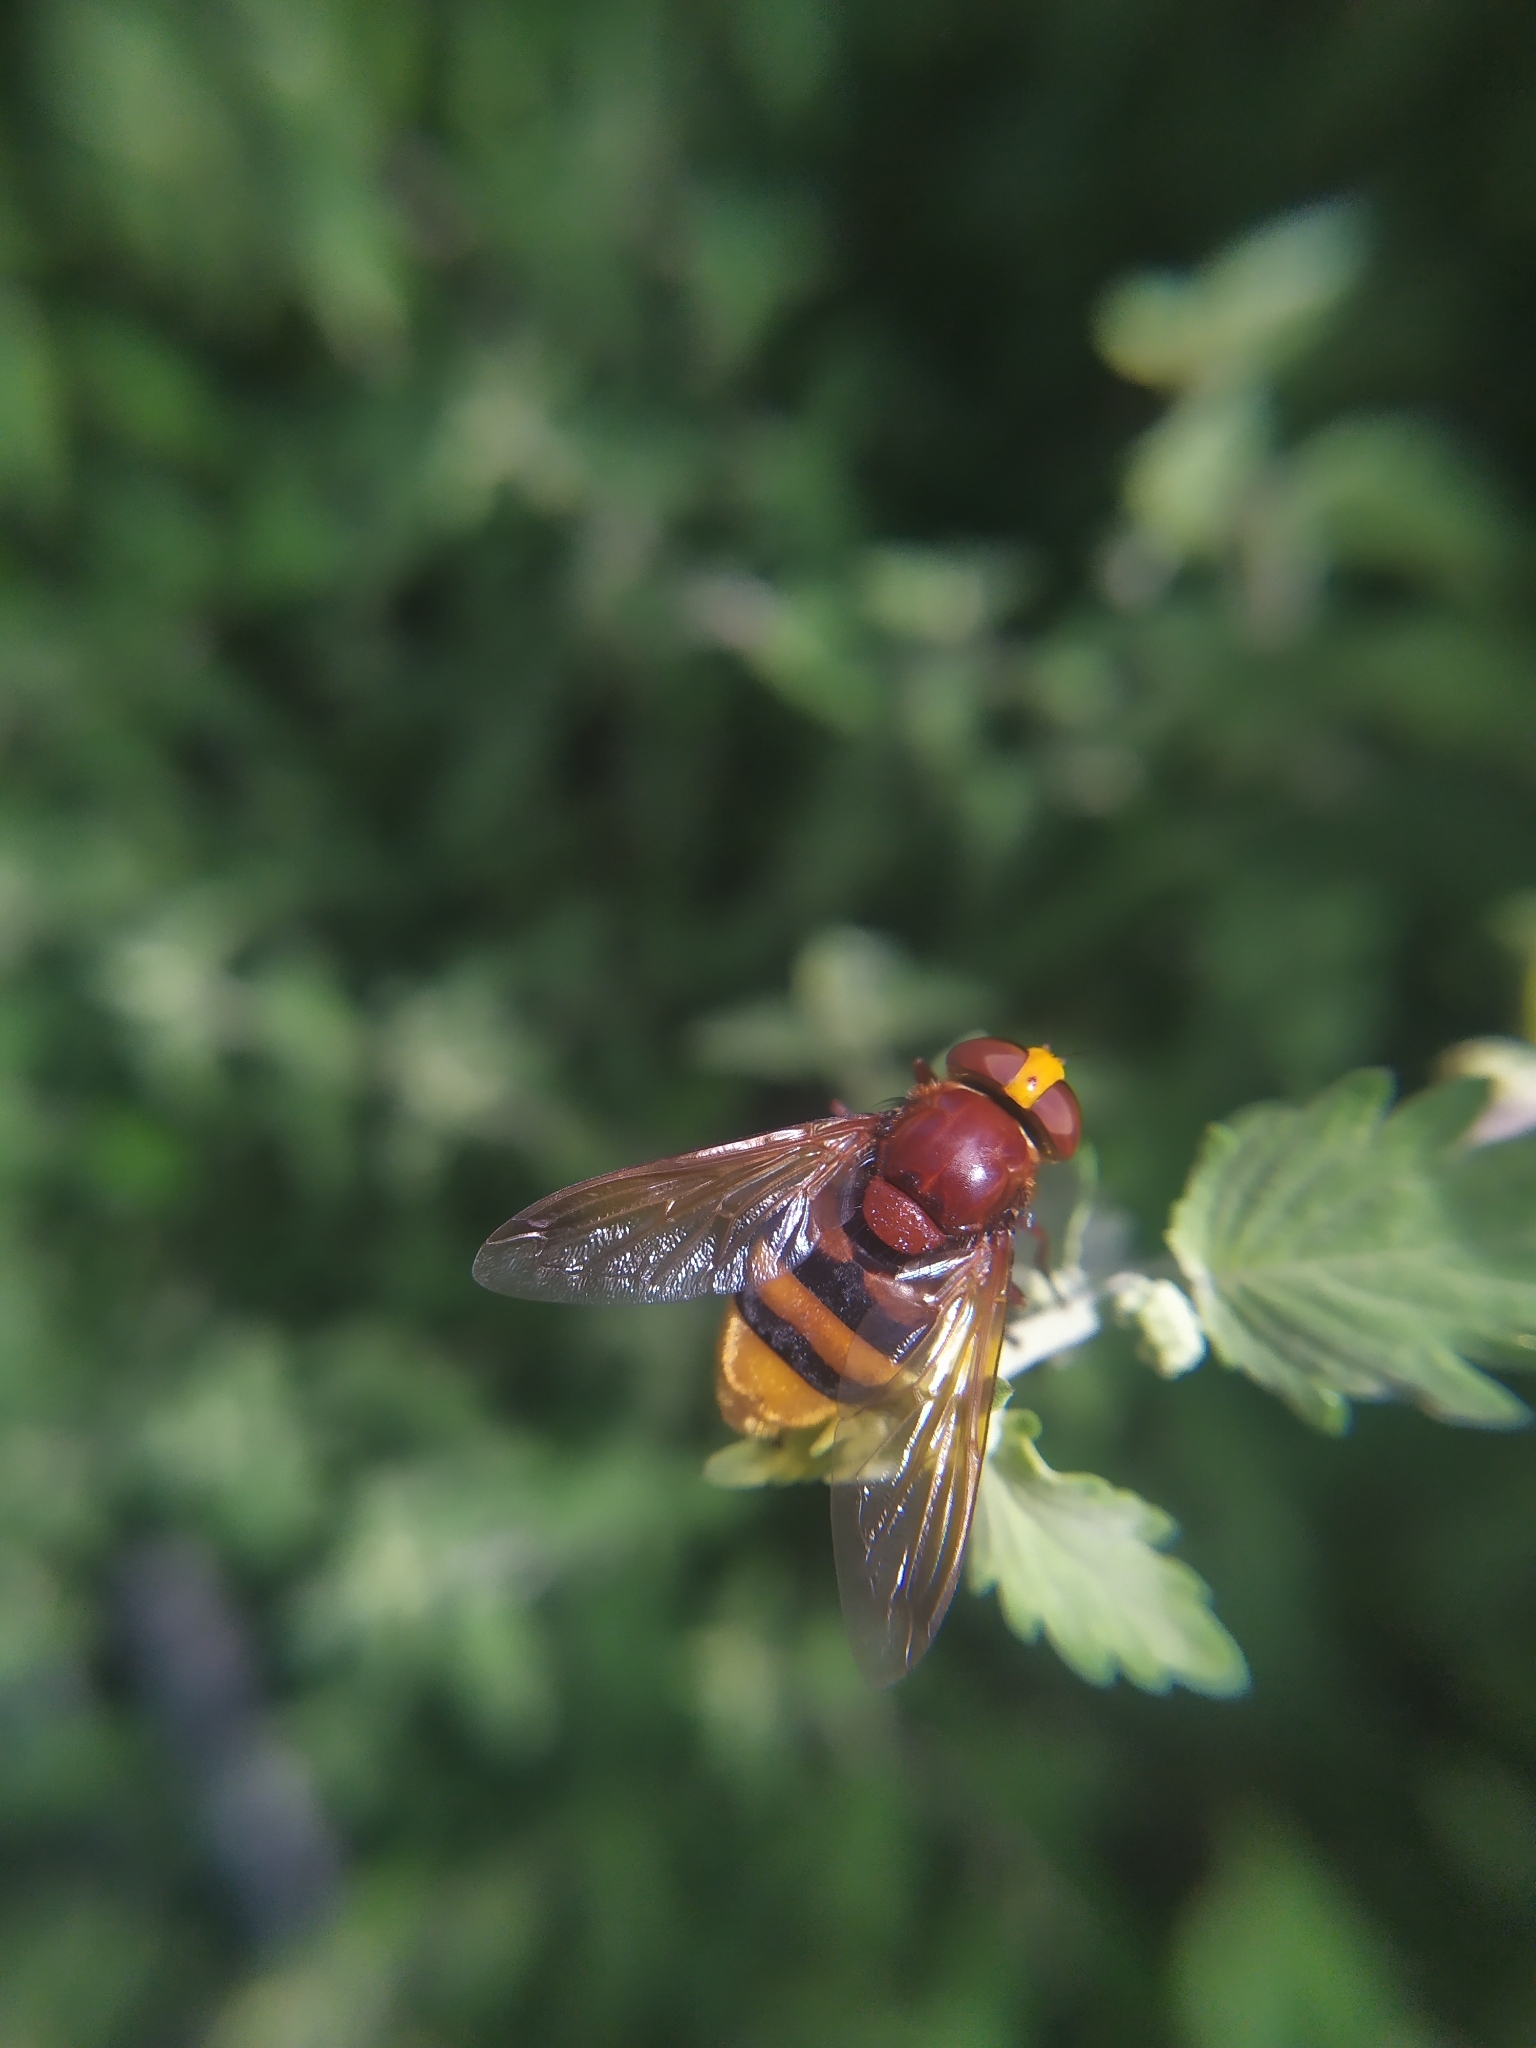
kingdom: Animalia
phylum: Arthropoda
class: Insecta
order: Diptera
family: Syrphidae
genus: Volucella
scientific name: Volucella zonaria
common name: Hornet hoverfly
